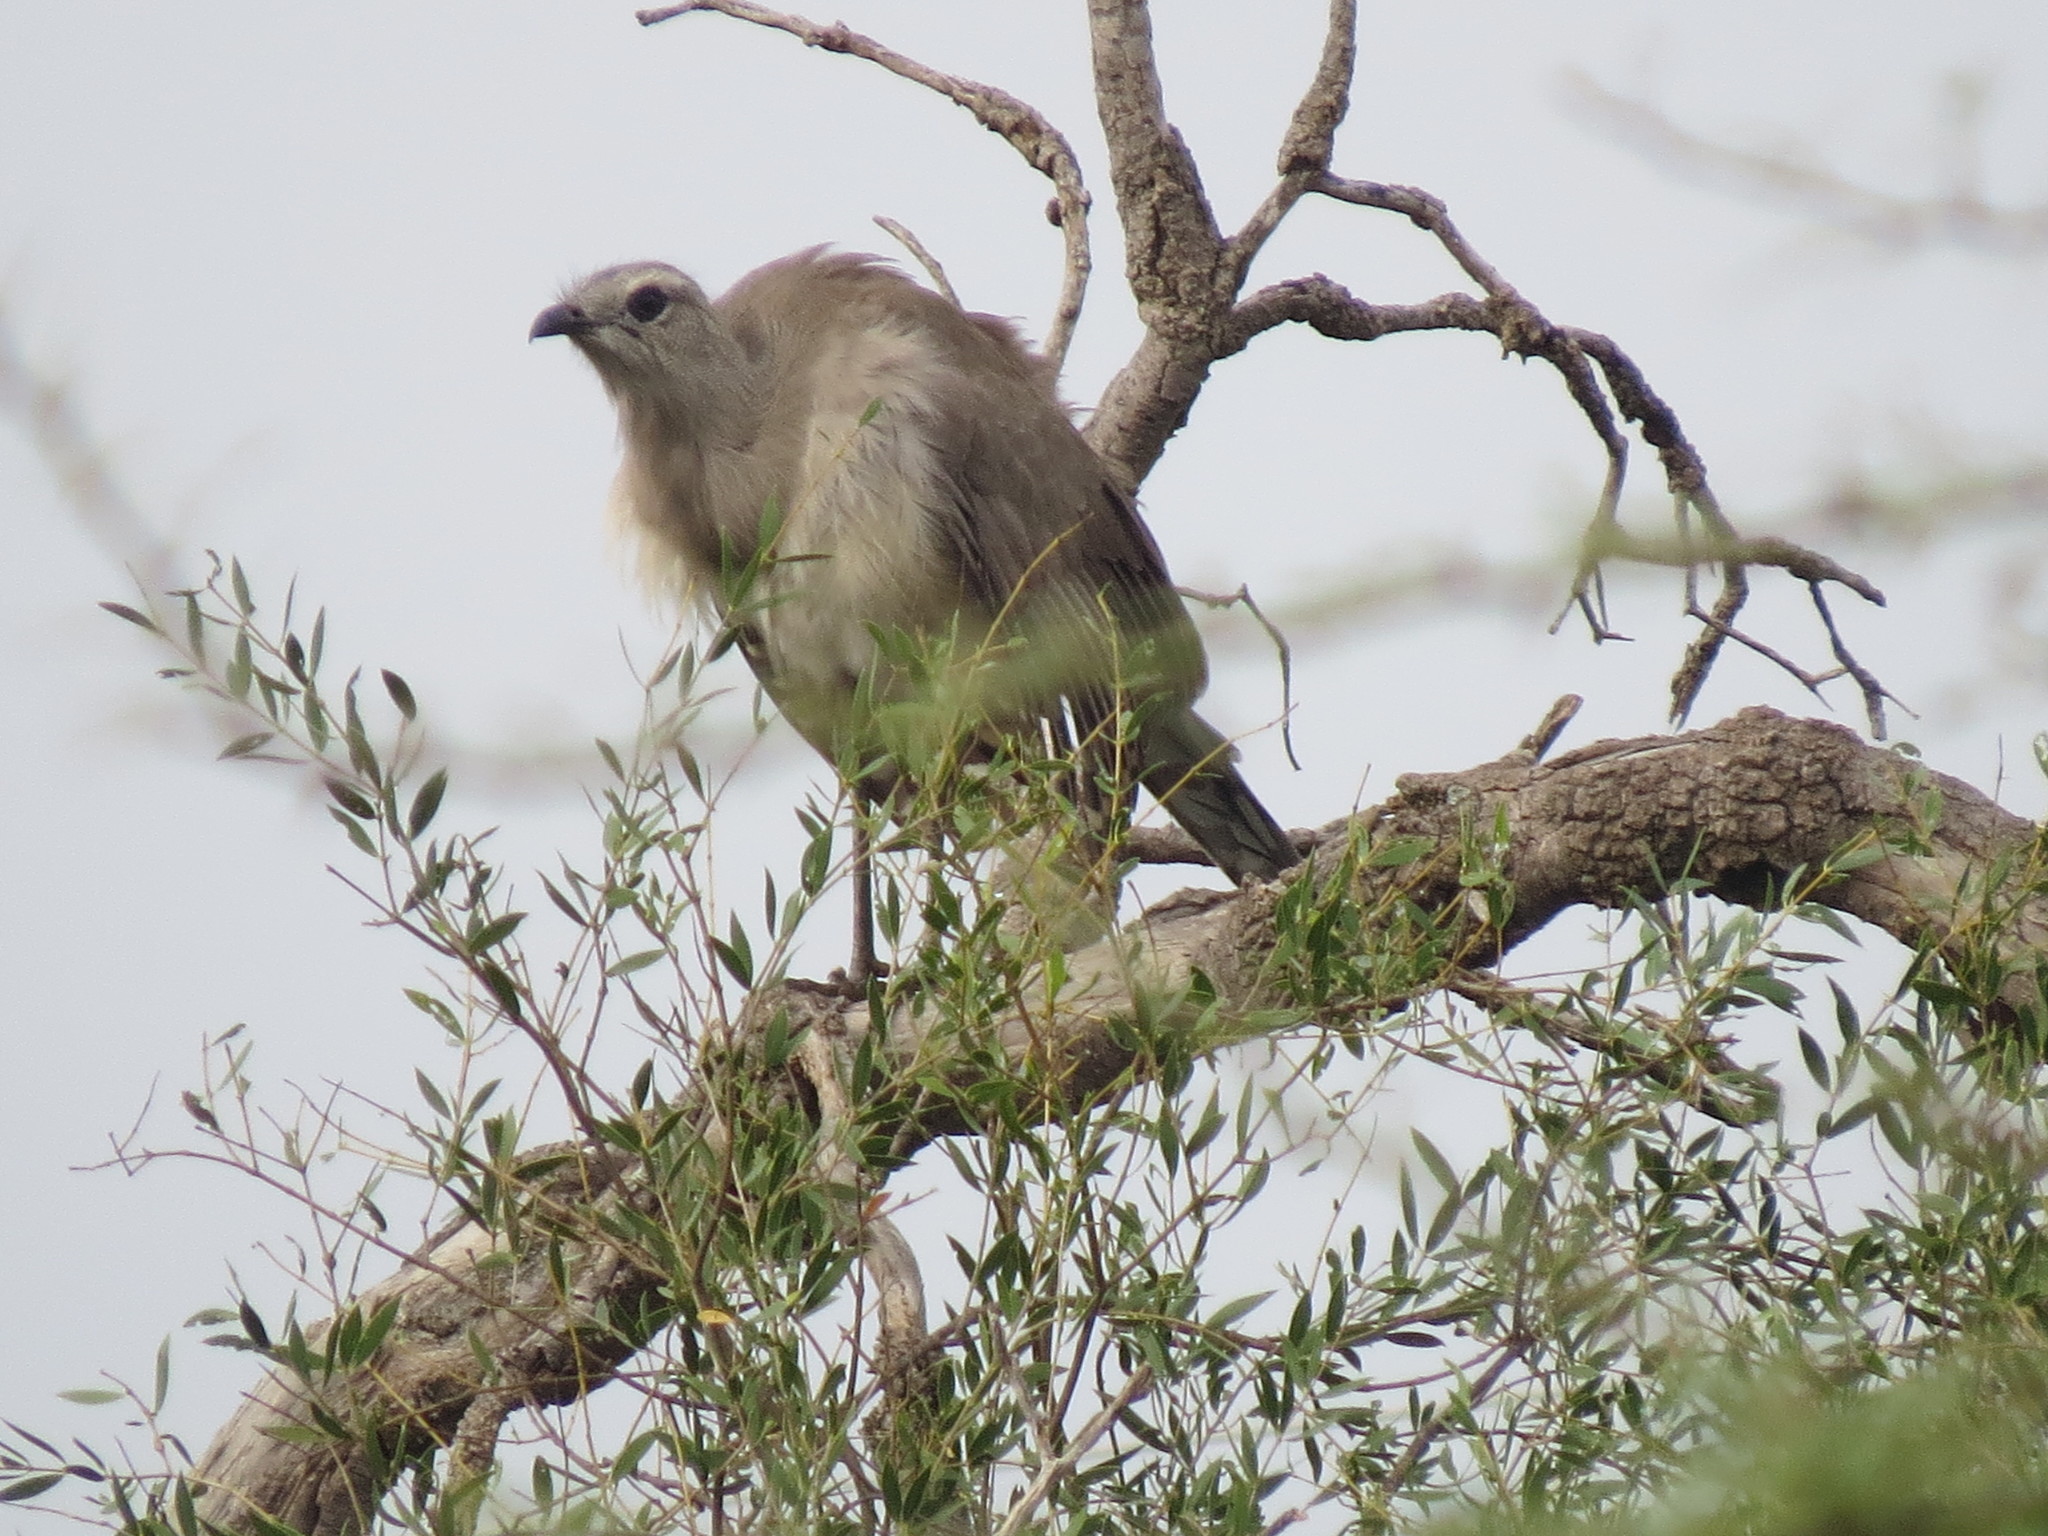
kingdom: Animalia
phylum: Chordata
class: Aves
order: Cariamiformes
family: Cariamidae
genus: Chunga
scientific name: Chunga burmeisteri
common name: Black-legged seriema
